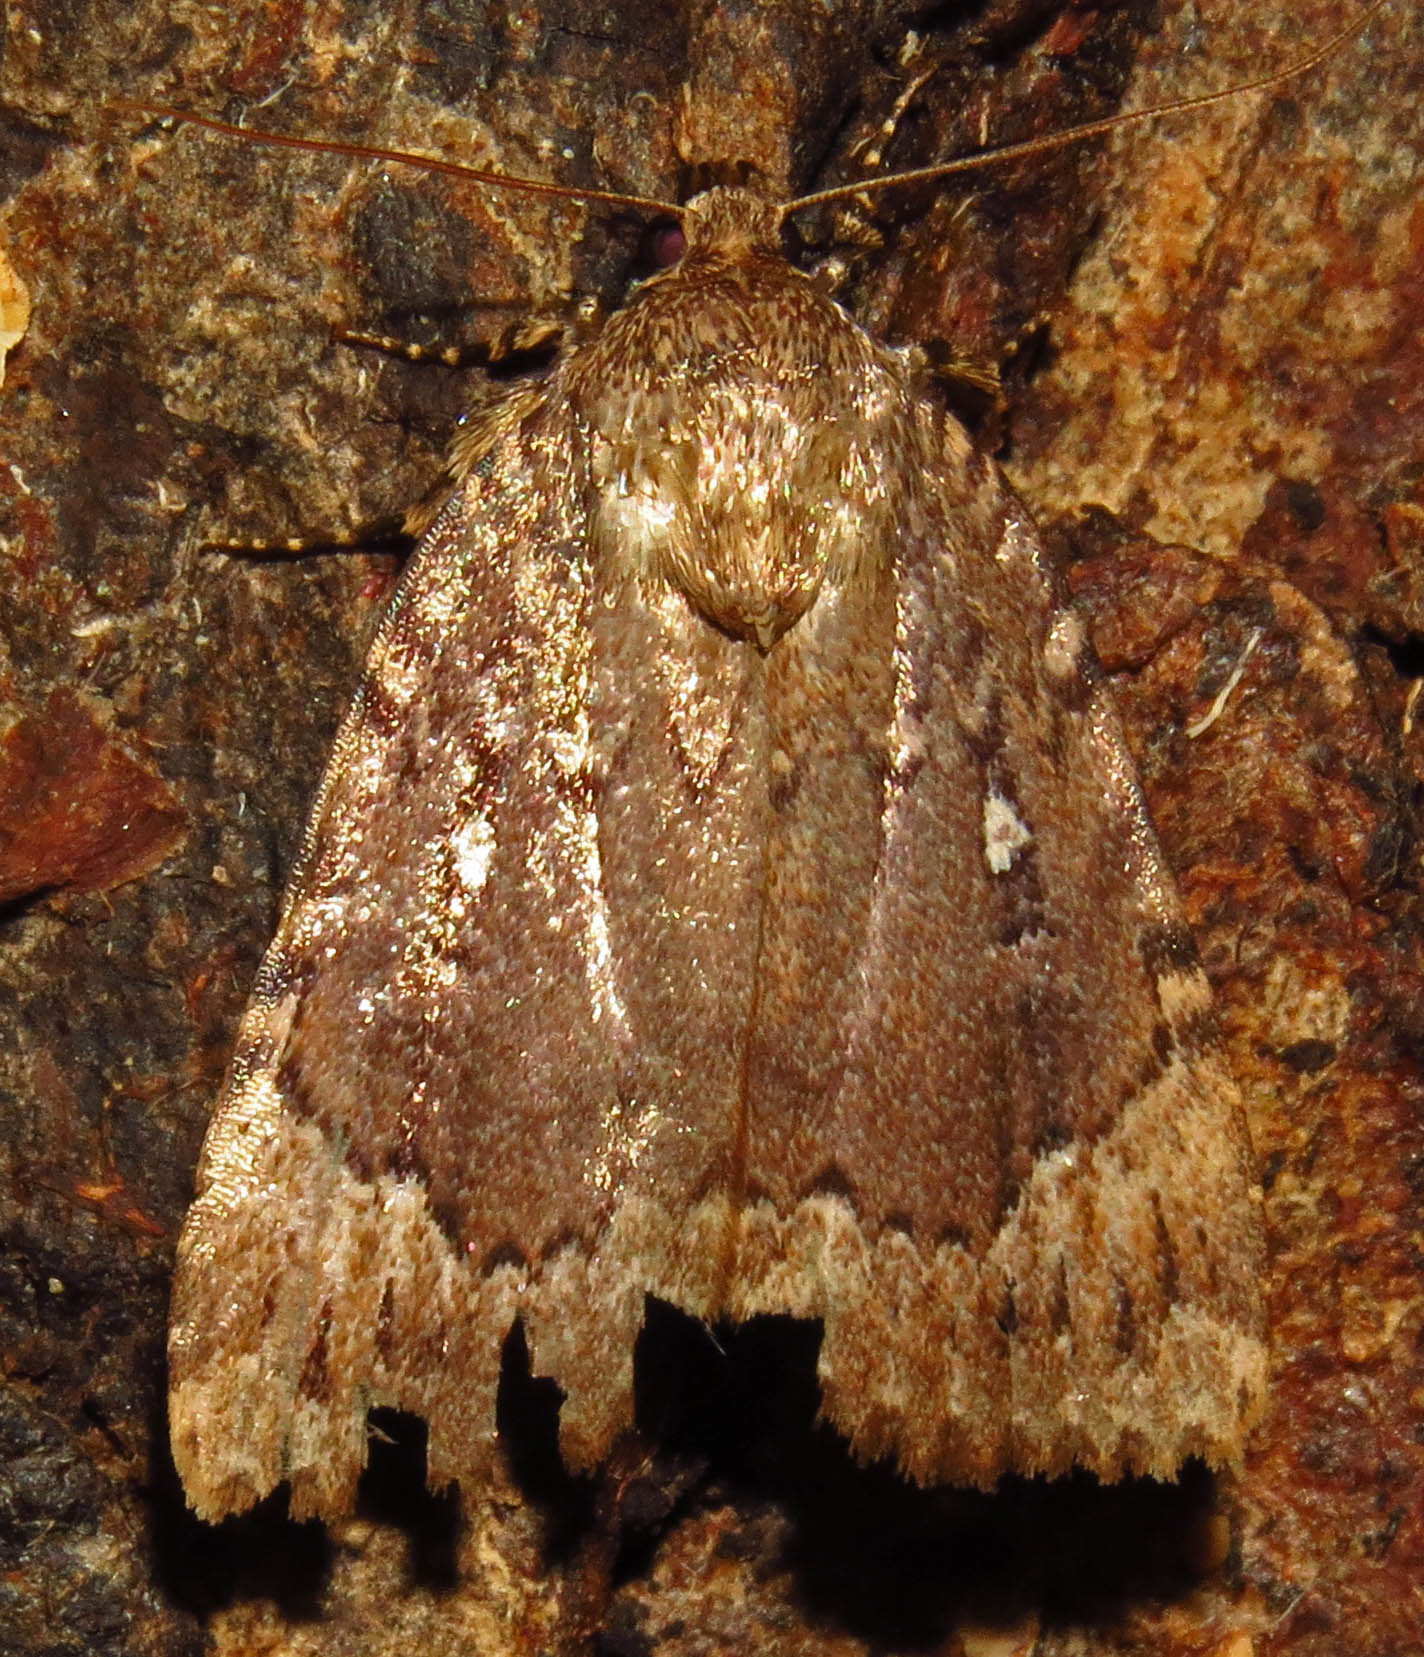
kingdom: Animalia
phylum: Arthropoda
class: Insecta
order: Lepidoptera
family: Noctuidae
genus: Amphipyra
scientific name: Amphipyra pyramidoides
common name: American copper underwing
